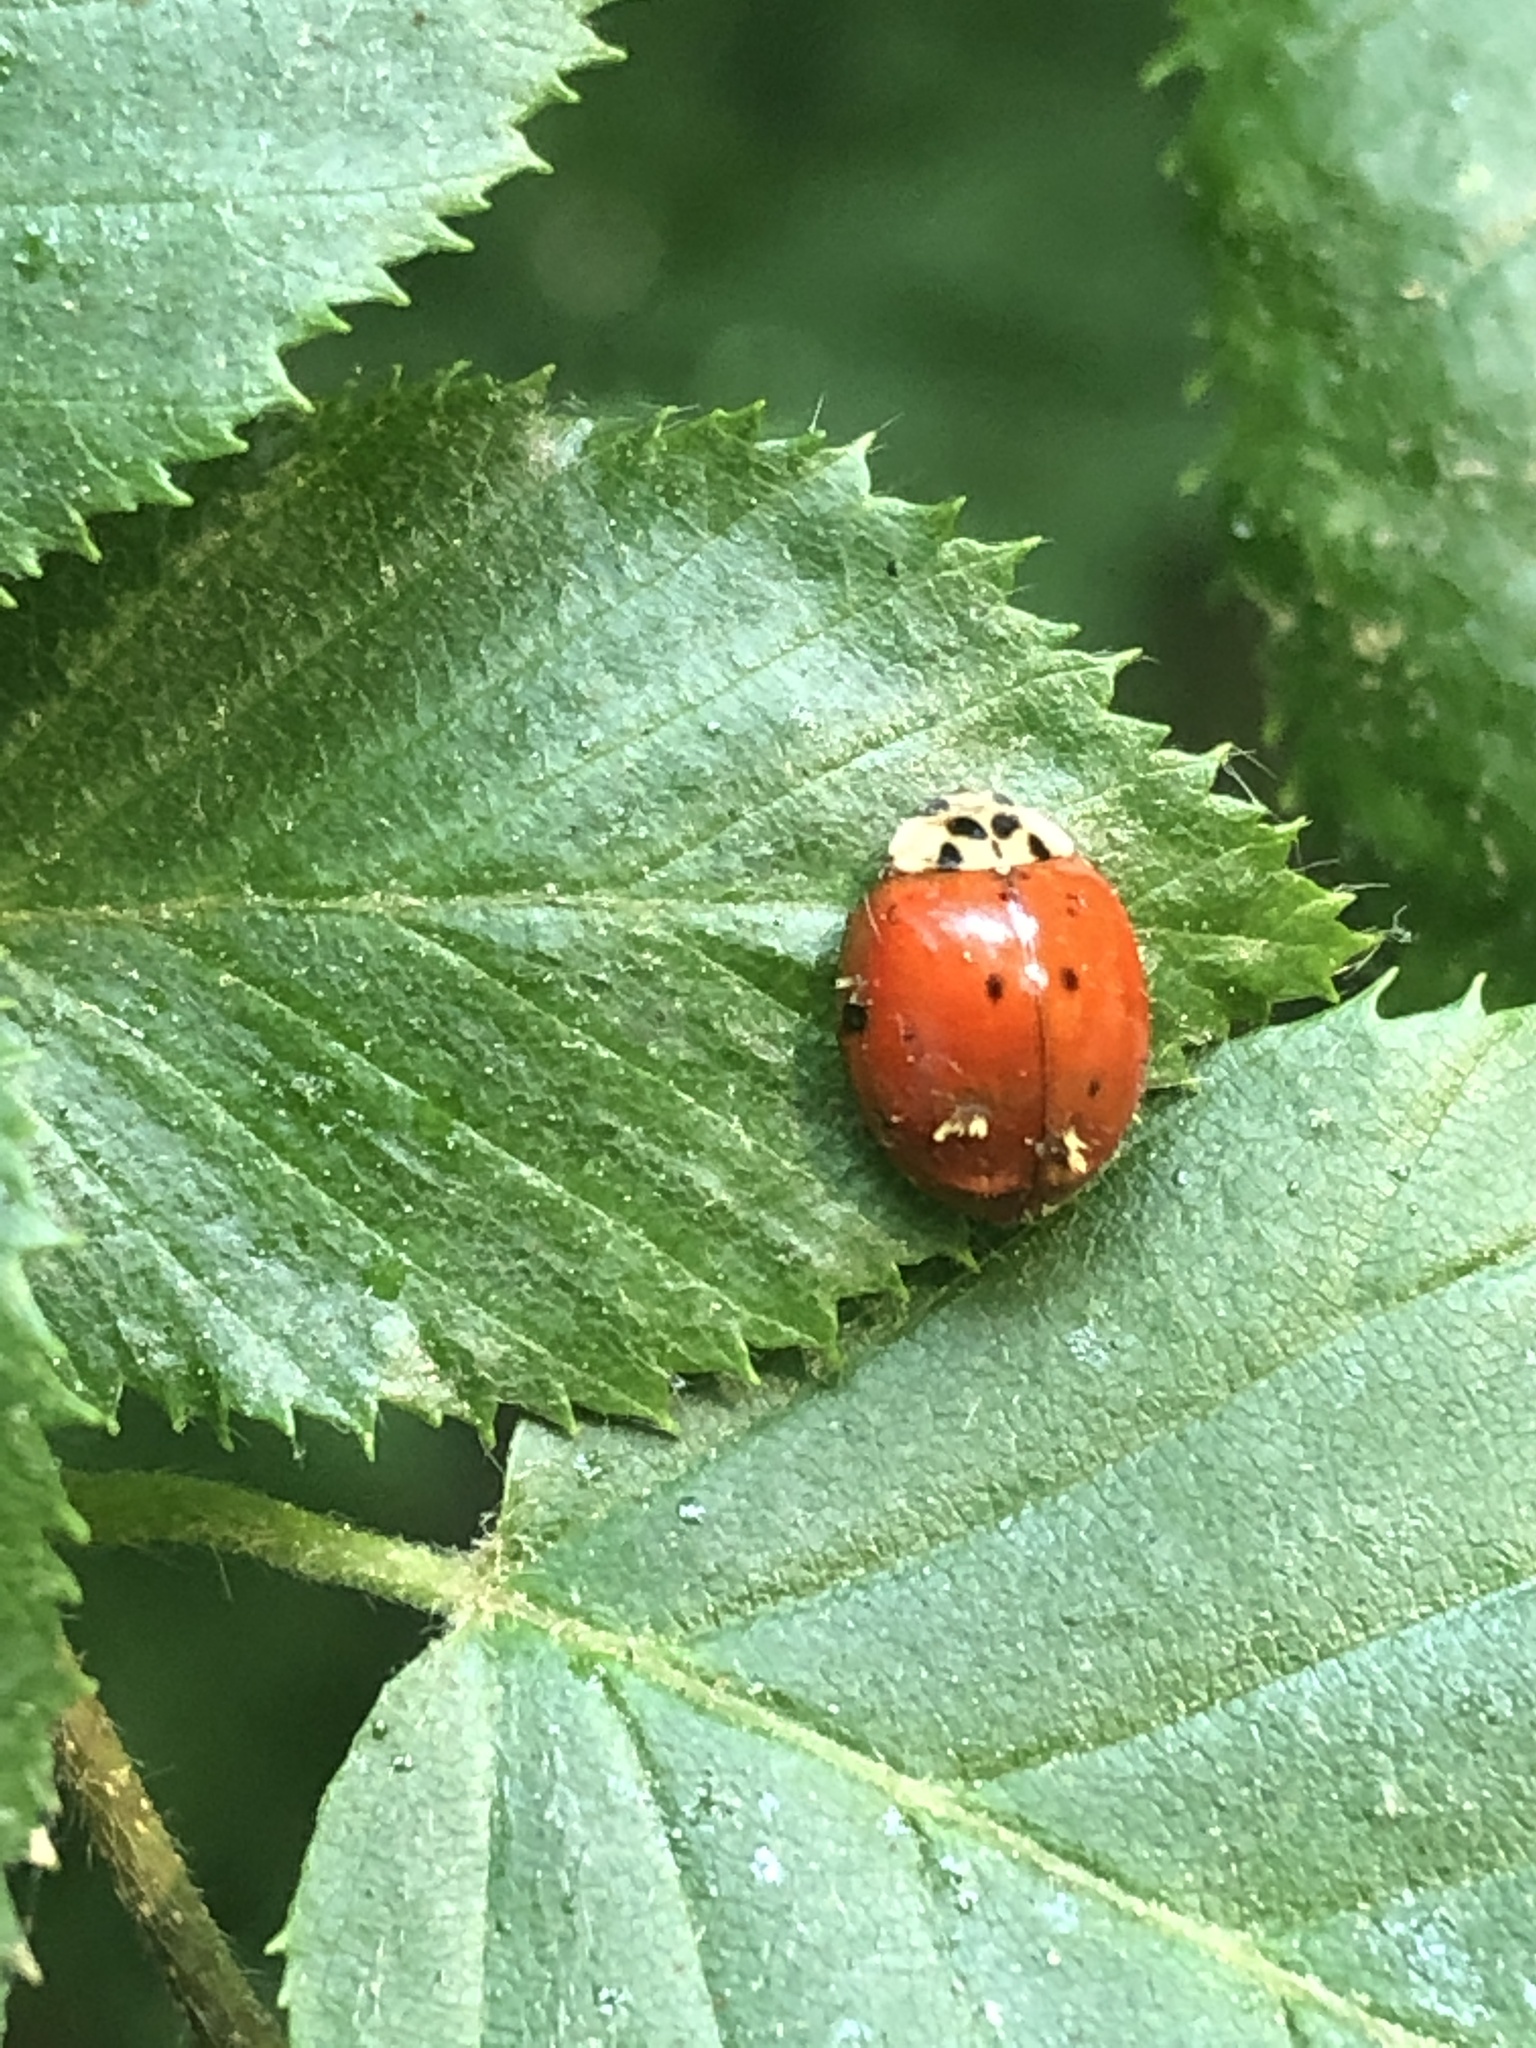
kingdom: Fungi
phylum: Ascomycota
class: Laboulbeniomycetes
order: Laboulbeniales
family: Laboulbeniaceae
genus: Hesperomyces
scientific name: Hesperomyces harmoniae
